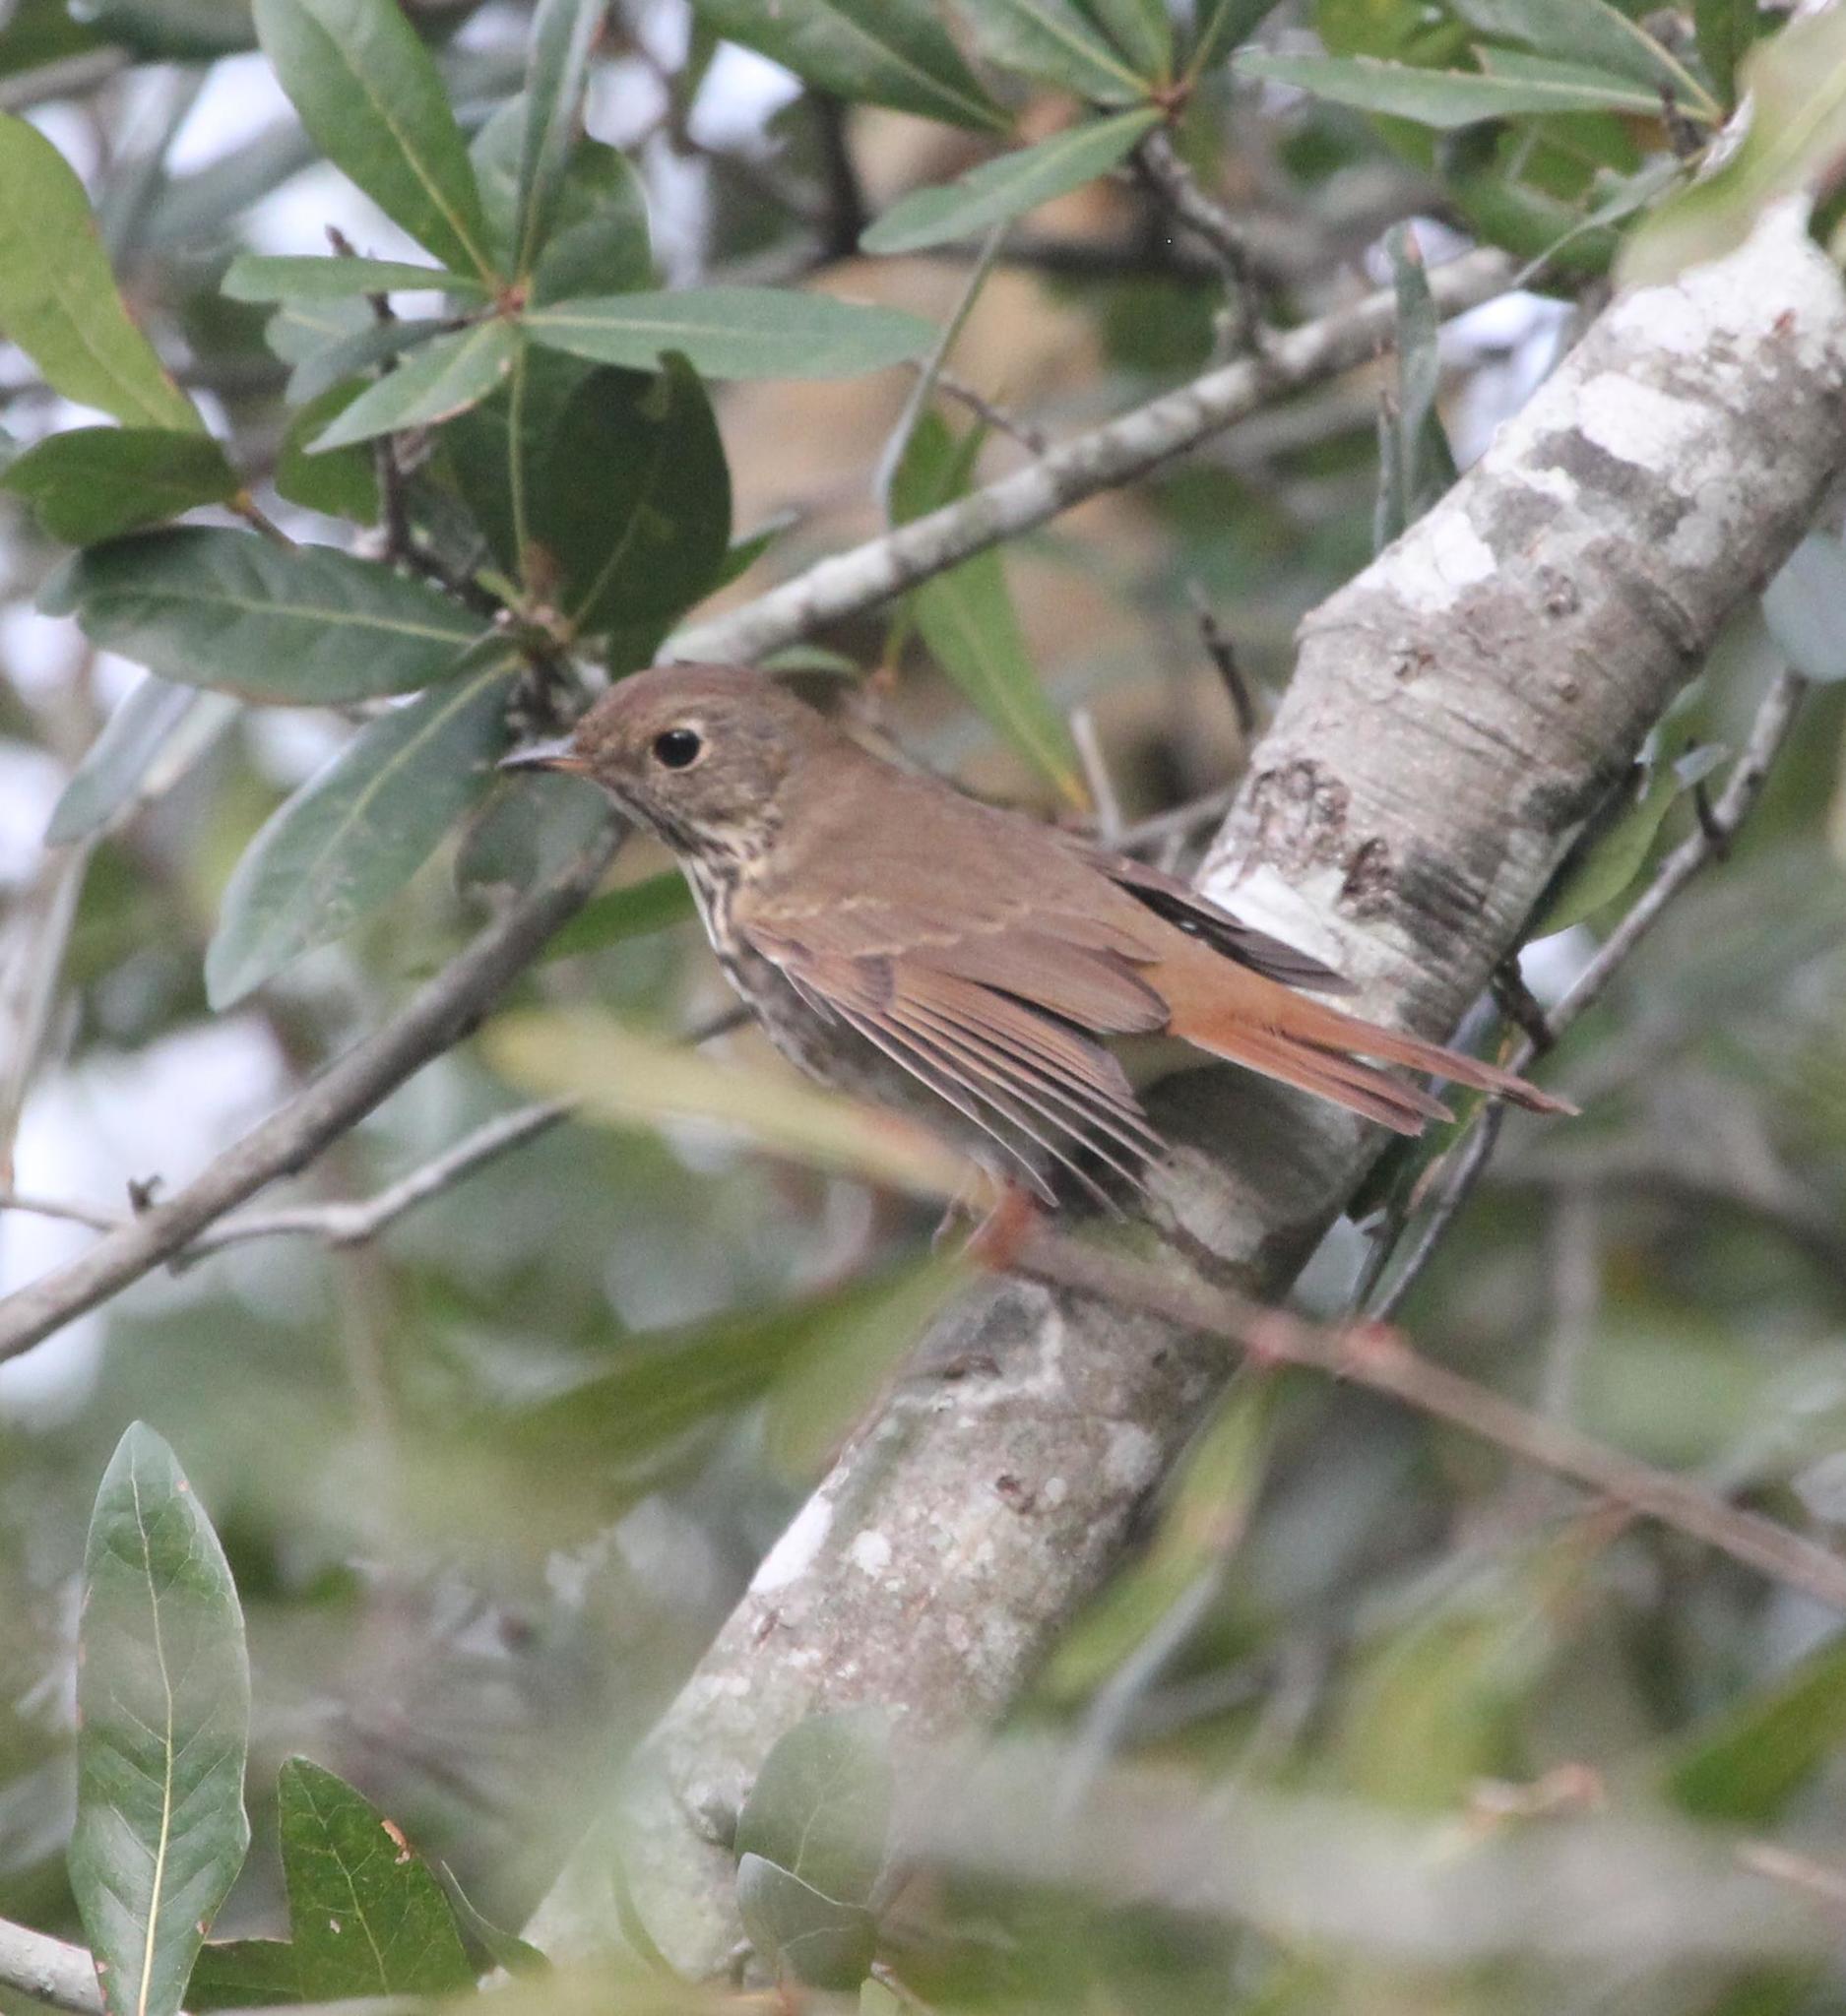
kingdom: Animalia
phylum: Chordata
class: Aves
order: Passeriformes
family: Turdidae
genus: Catharus
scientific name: Catharus guttatus
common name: Hermit thrush
